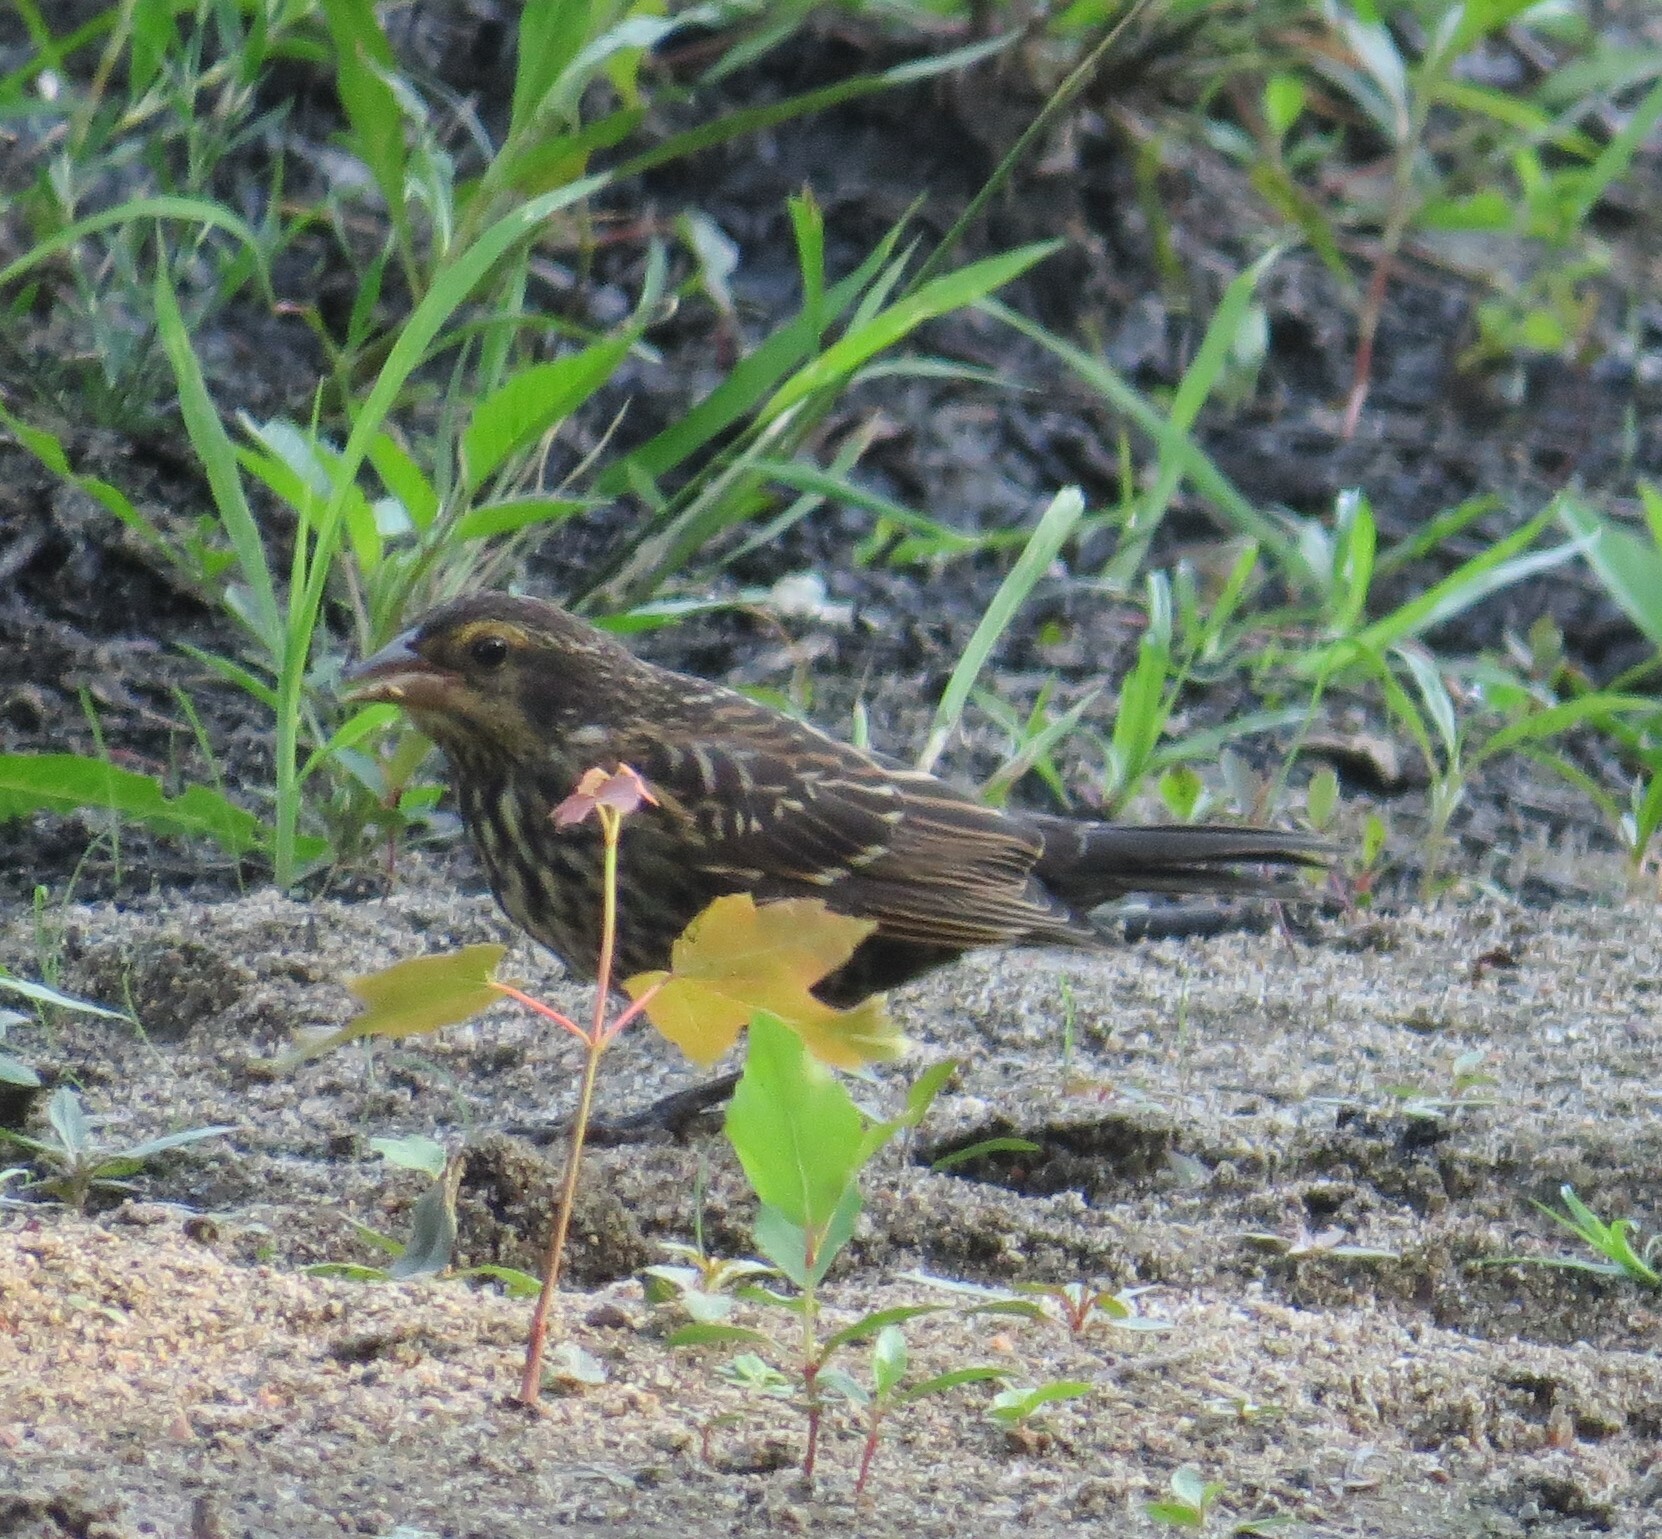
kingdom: Animalia
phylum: Chordata
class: Aves
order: Passeriformes
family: Icteridae
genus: Agelaius
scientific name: Agelaius phoeniceus
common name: Red-winged blackbird
